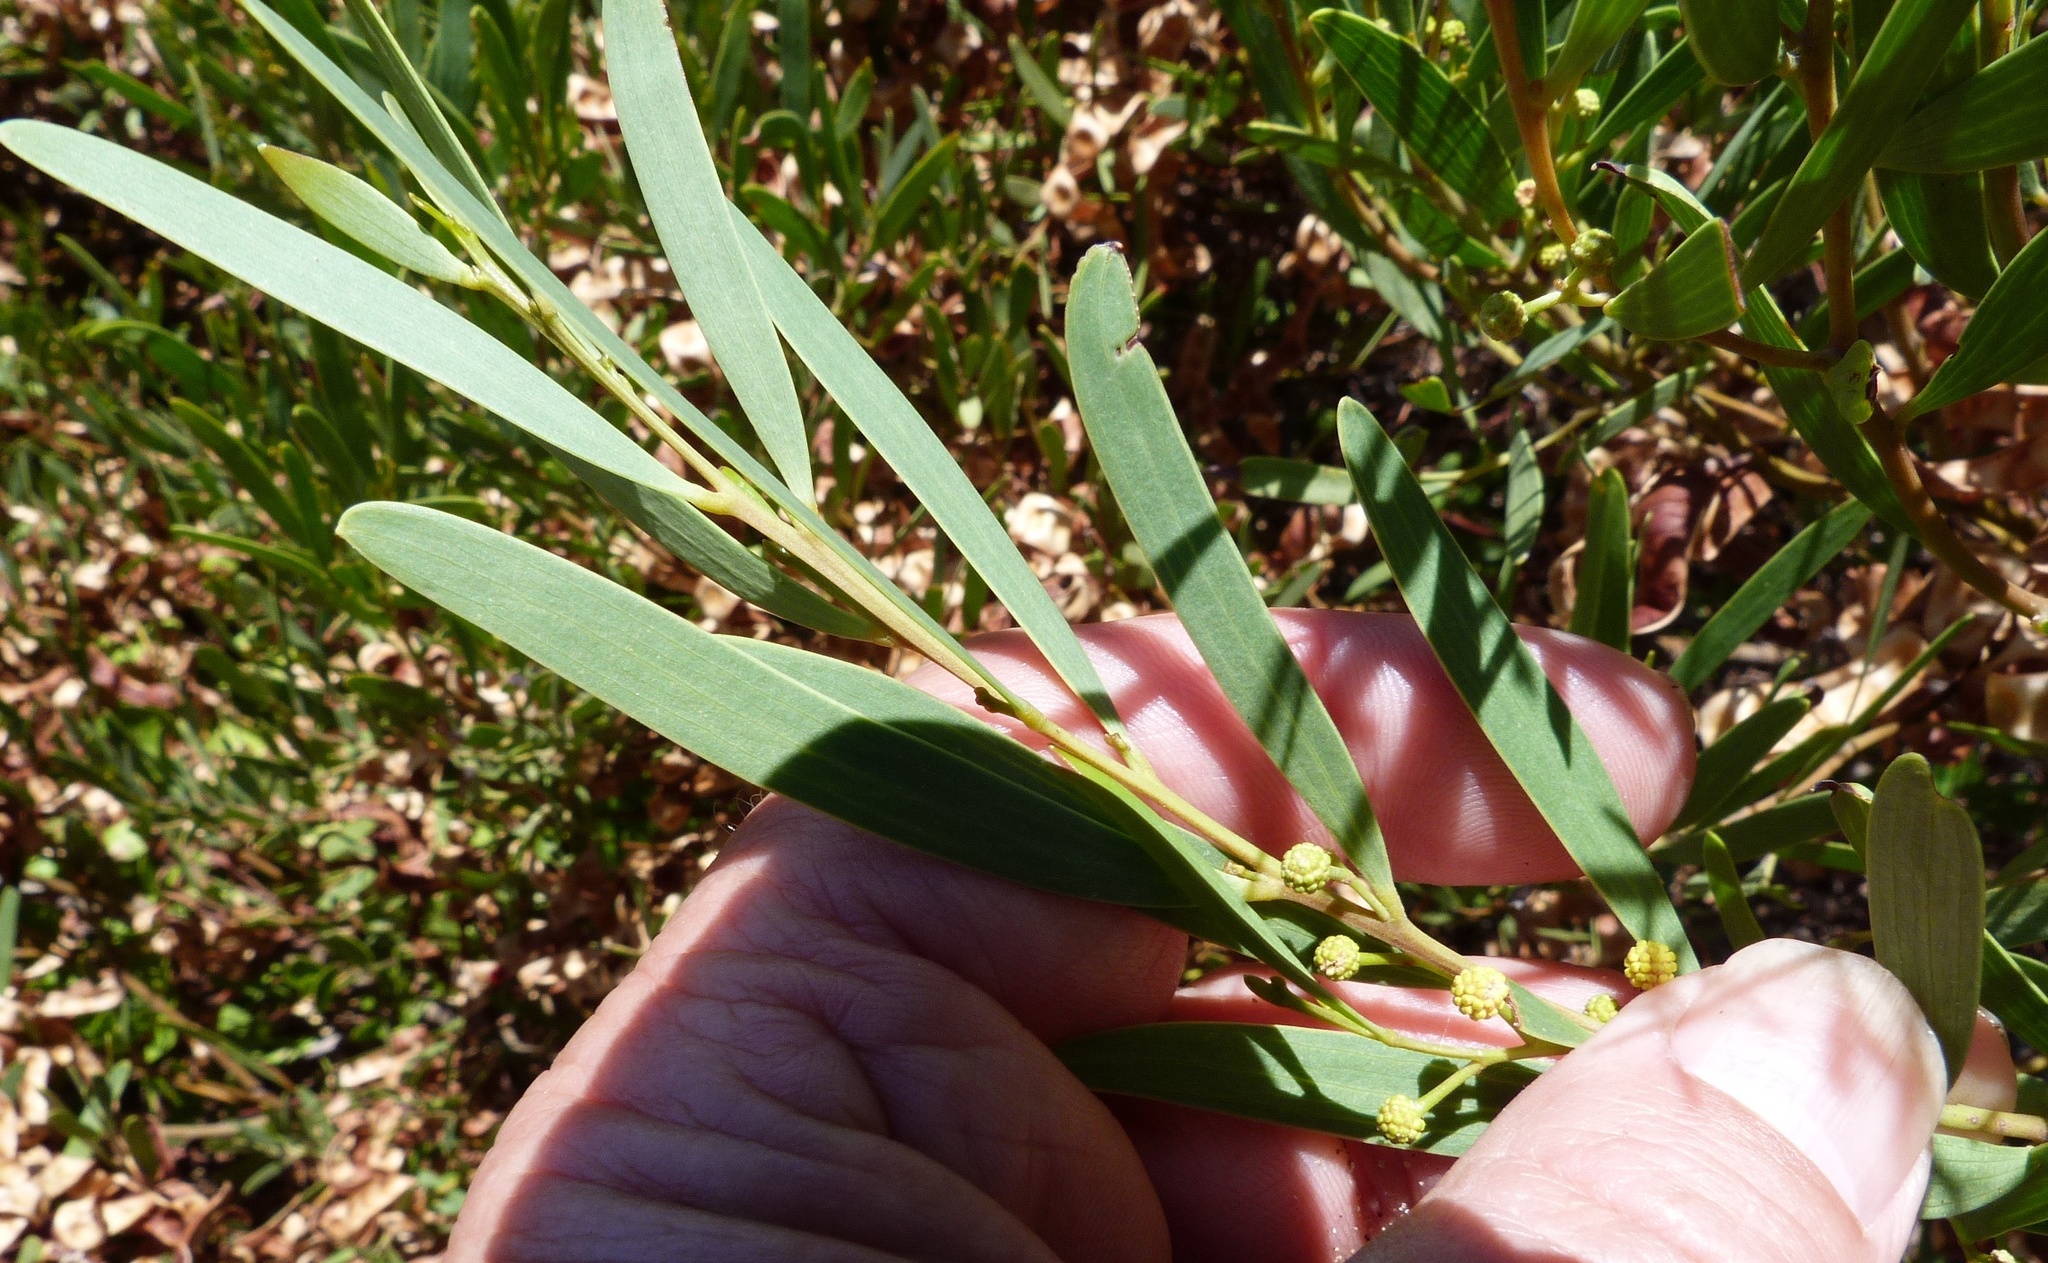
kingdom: Plantae
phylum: Tracheophyta
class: Magnoliopsida
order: Fabales
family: Fabaceae
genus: Acacia
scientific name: Acacia cyclops
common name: Coastal wattle
